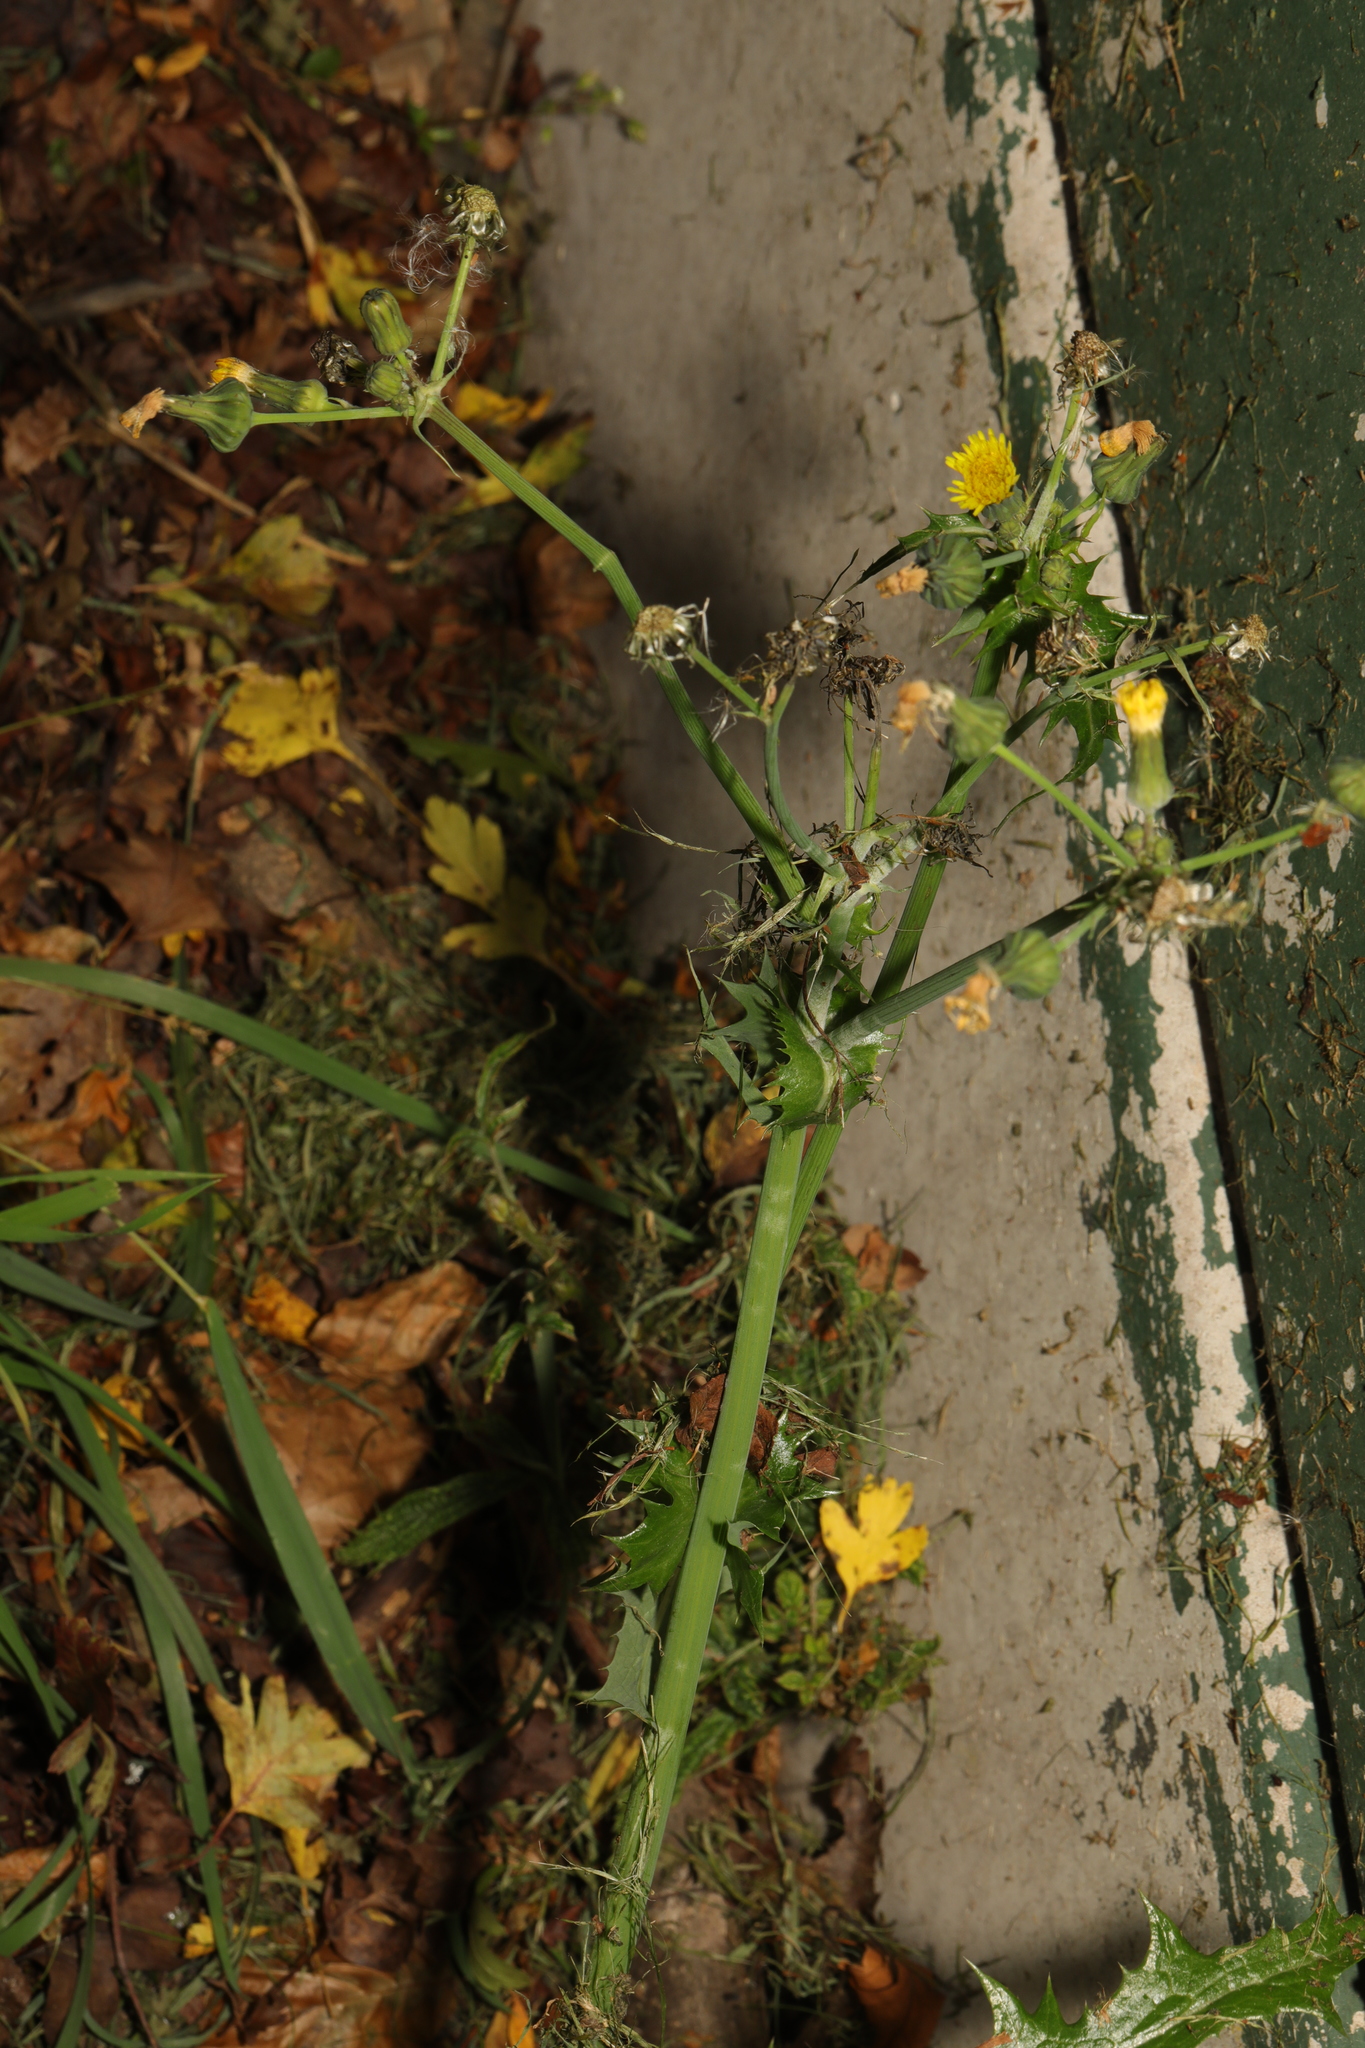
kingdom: Plantae
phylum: Tracheophyta
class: Magnoliopsida
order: Asterales
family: Asteraceae
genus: Sonchus
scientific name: Sonchus asper
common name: Prickly sow-thistle
